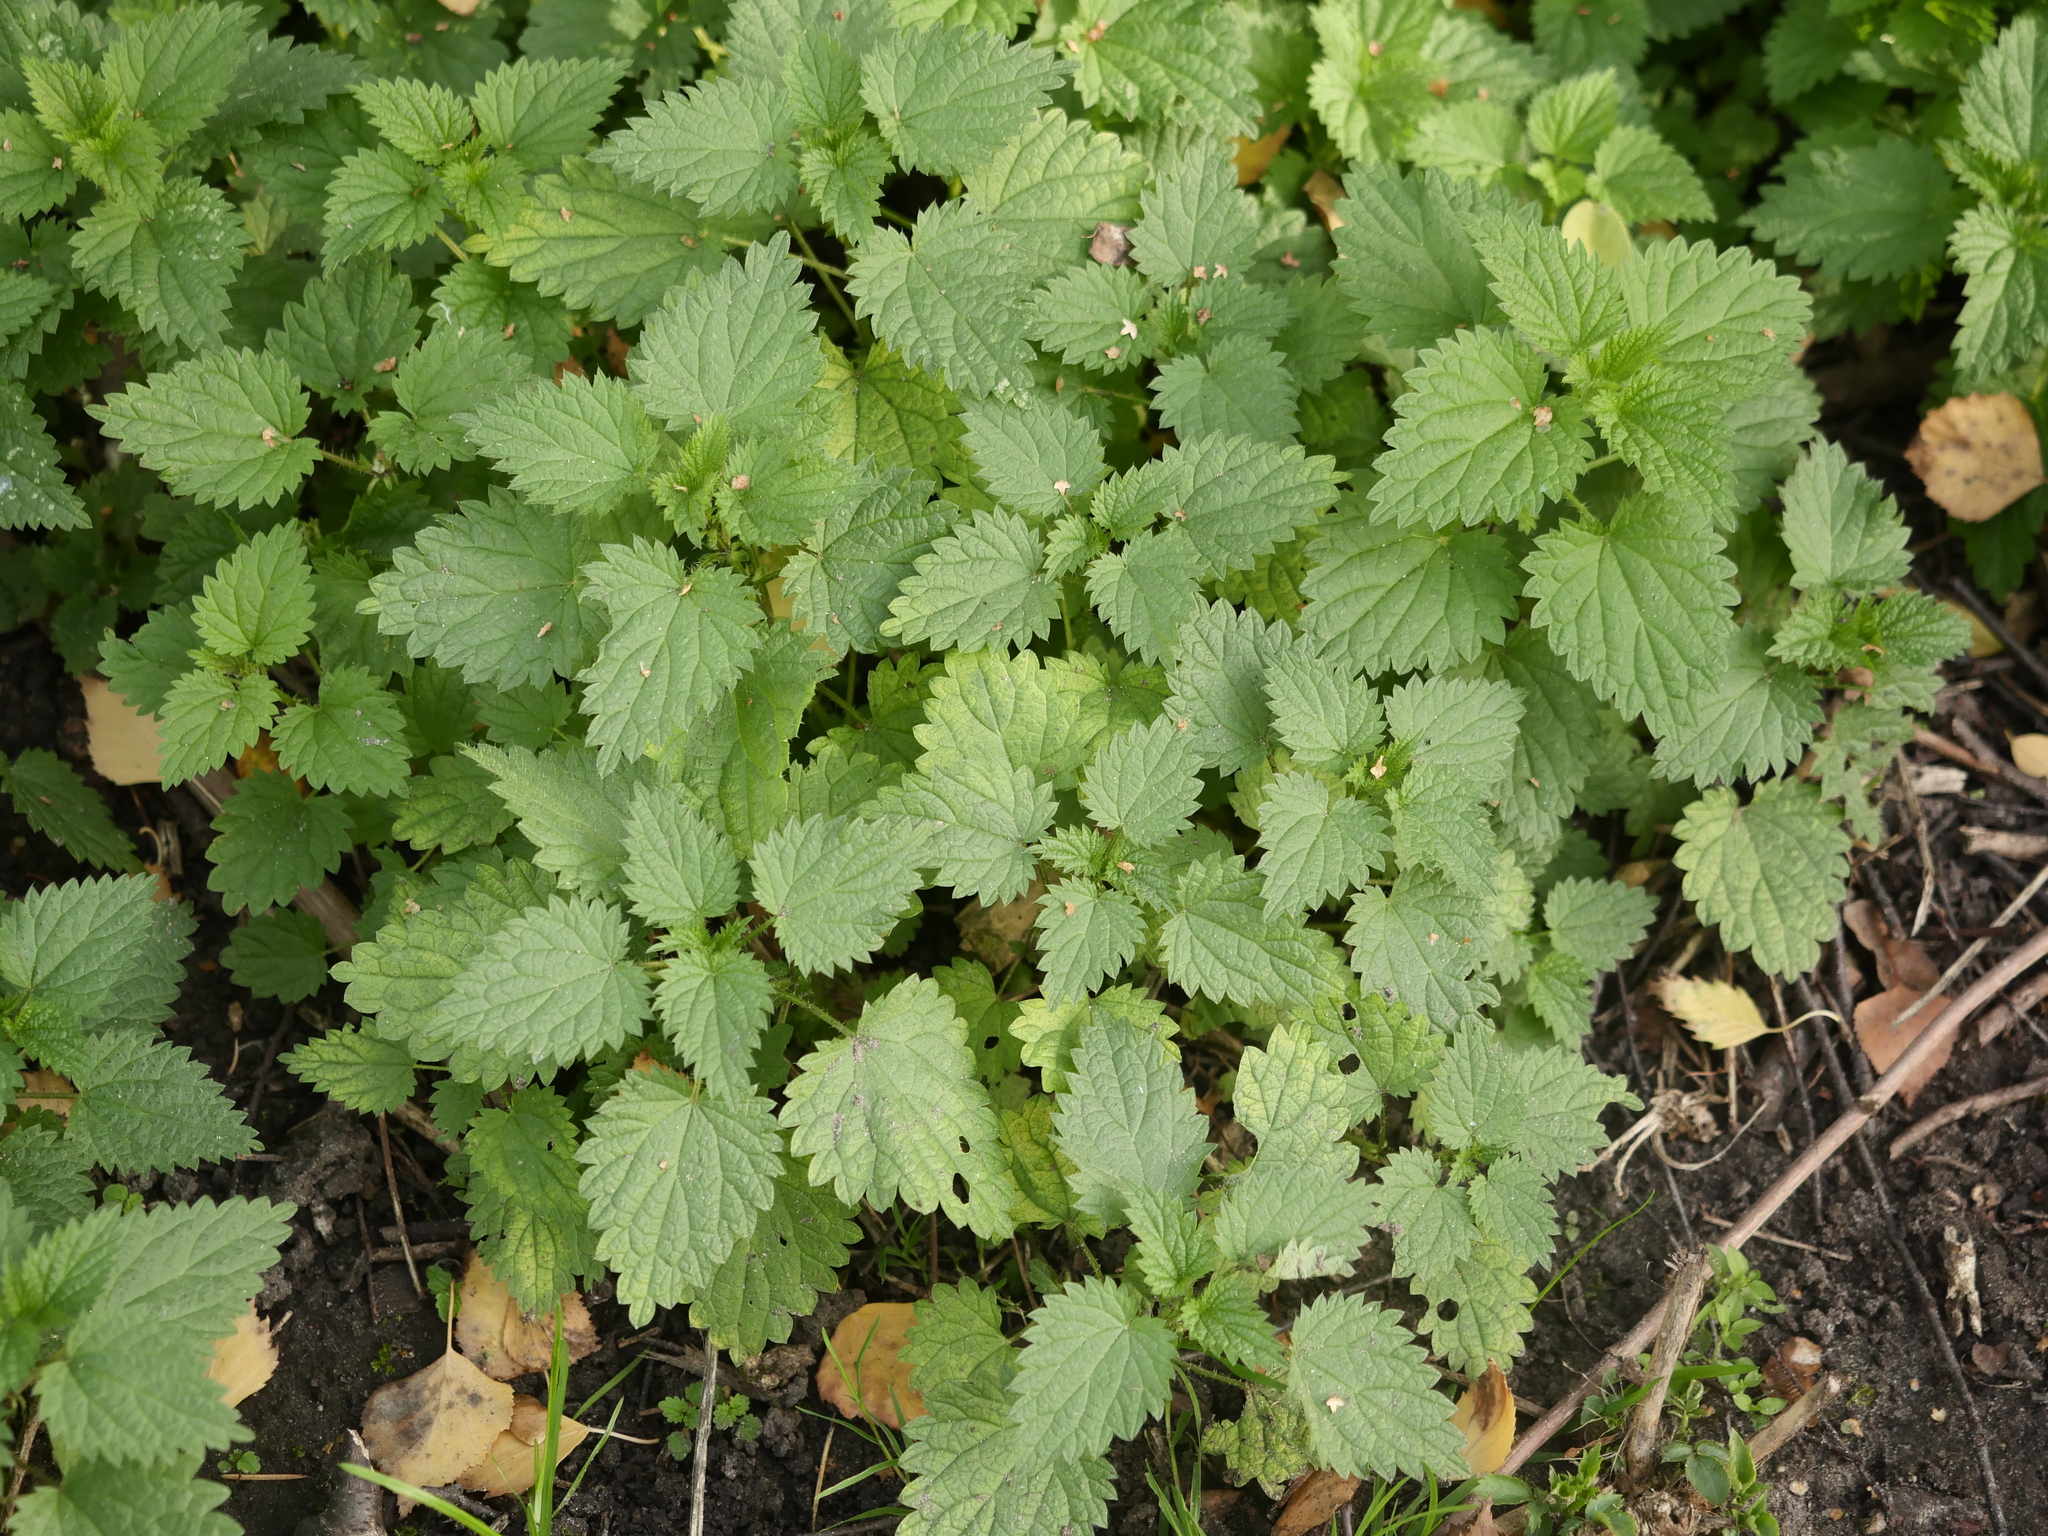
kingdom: Plantae
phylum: Tracheophyta
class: Magnoliopsida
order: Rosales
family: Urticaceae
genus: Urtica
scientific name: Urtica dioica
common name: Common nettle
